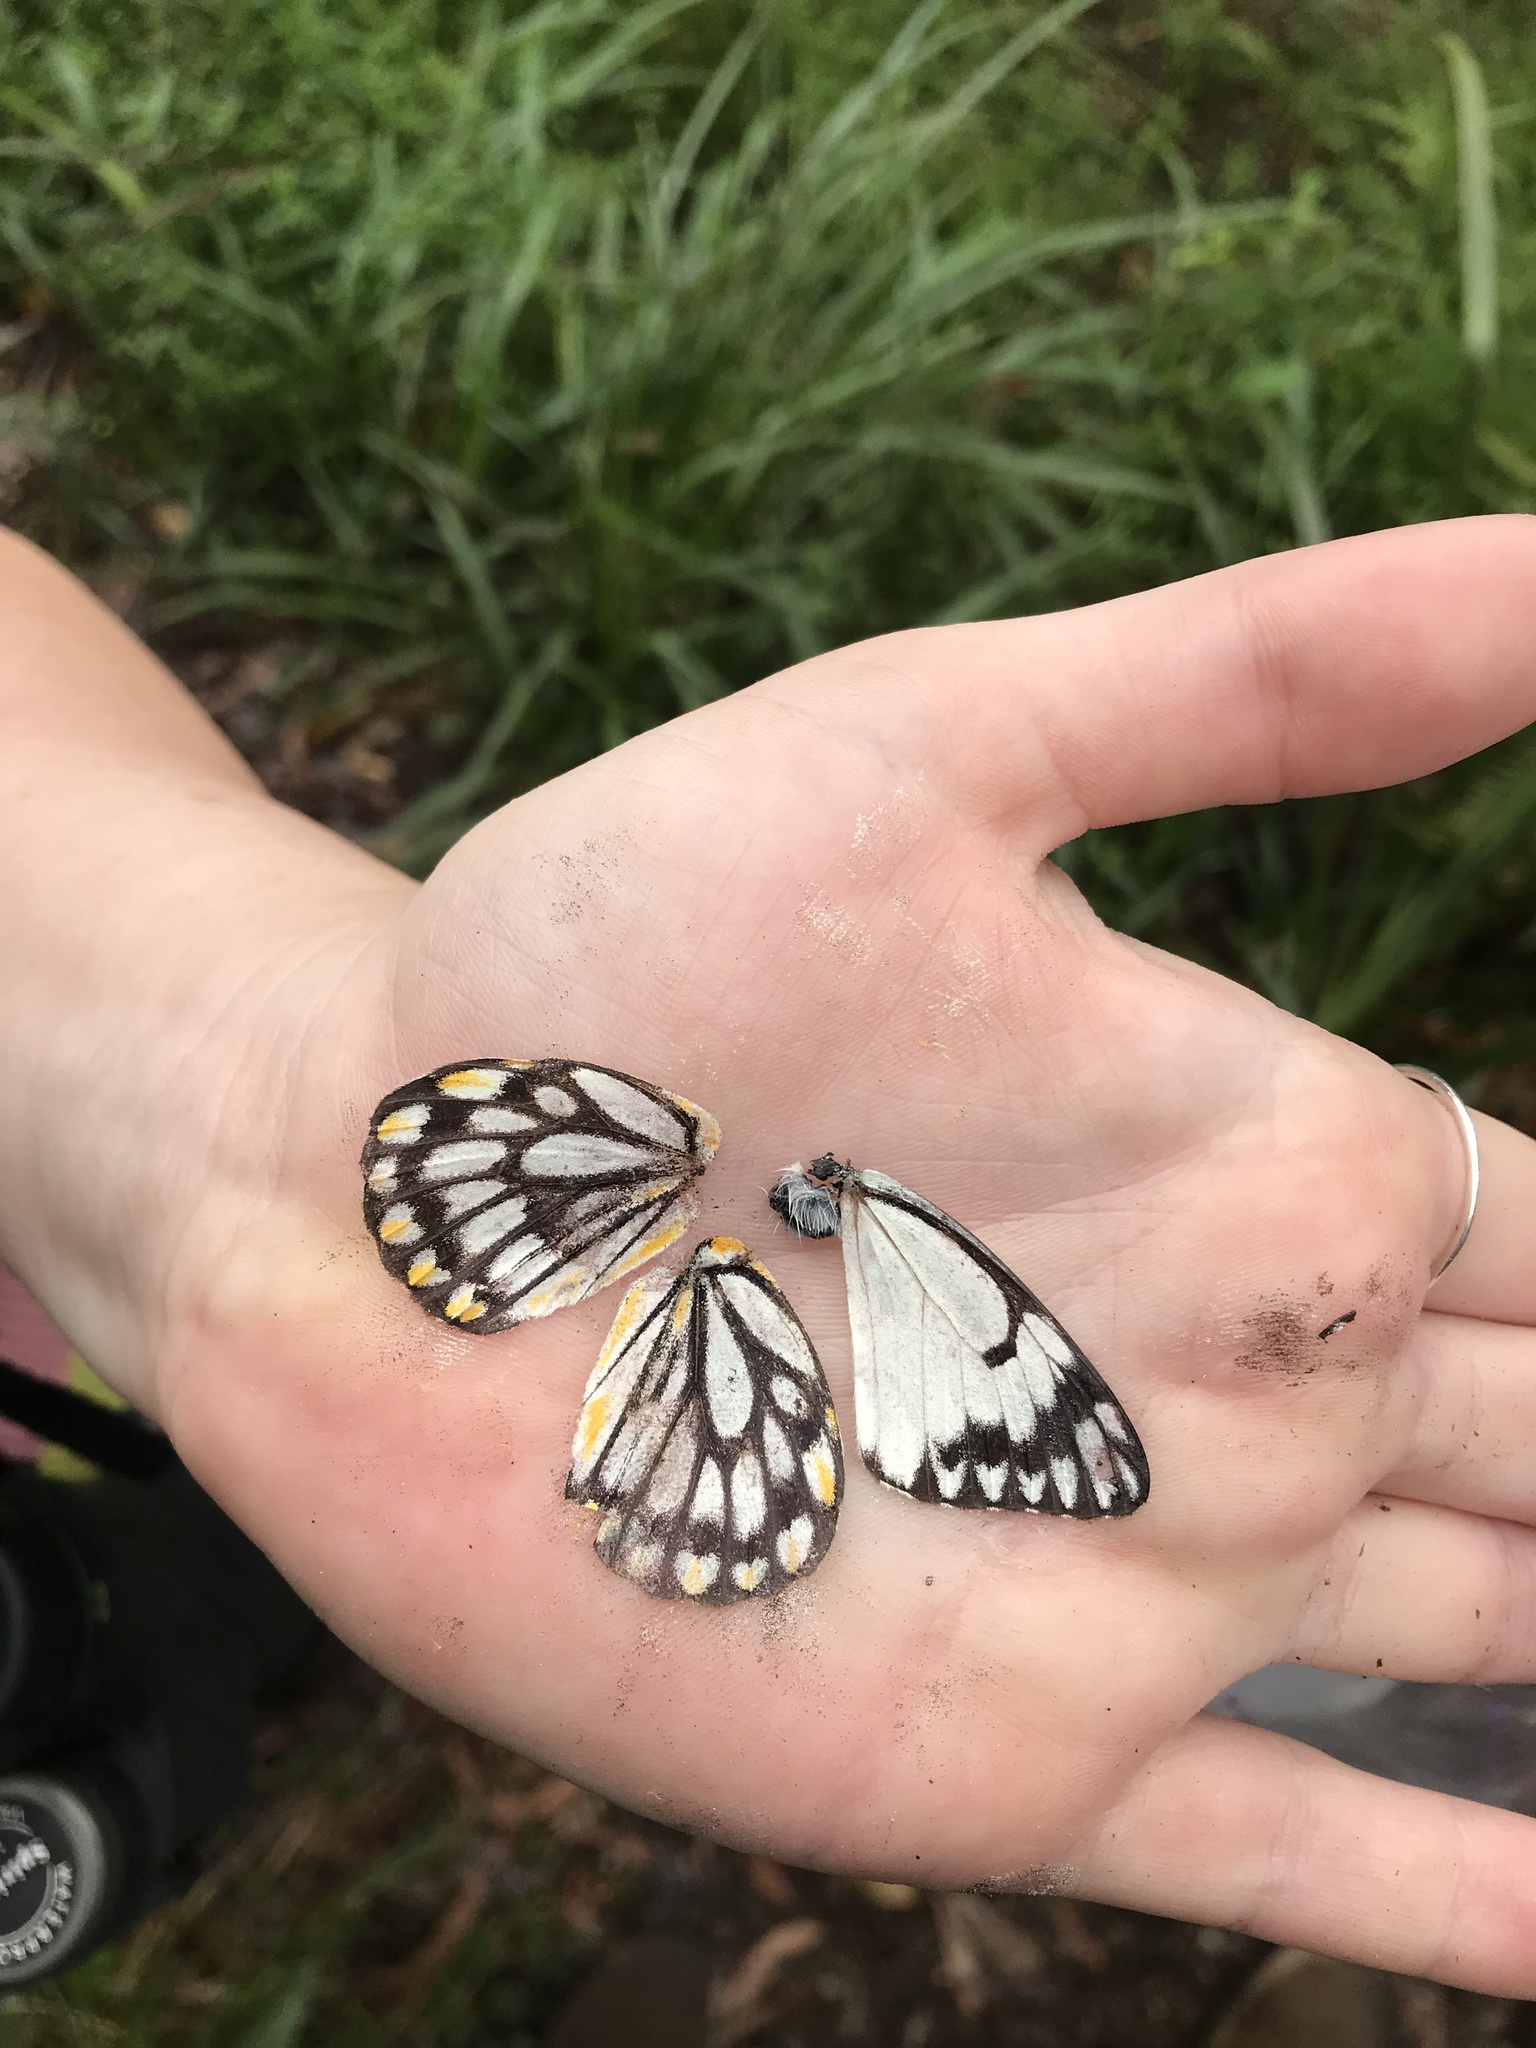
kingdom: Animalia
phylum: Arthropoda
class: Insecta
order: Lepidoptera
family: Pieridae
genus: Belenois
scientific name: Belenois java
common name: Caper white
